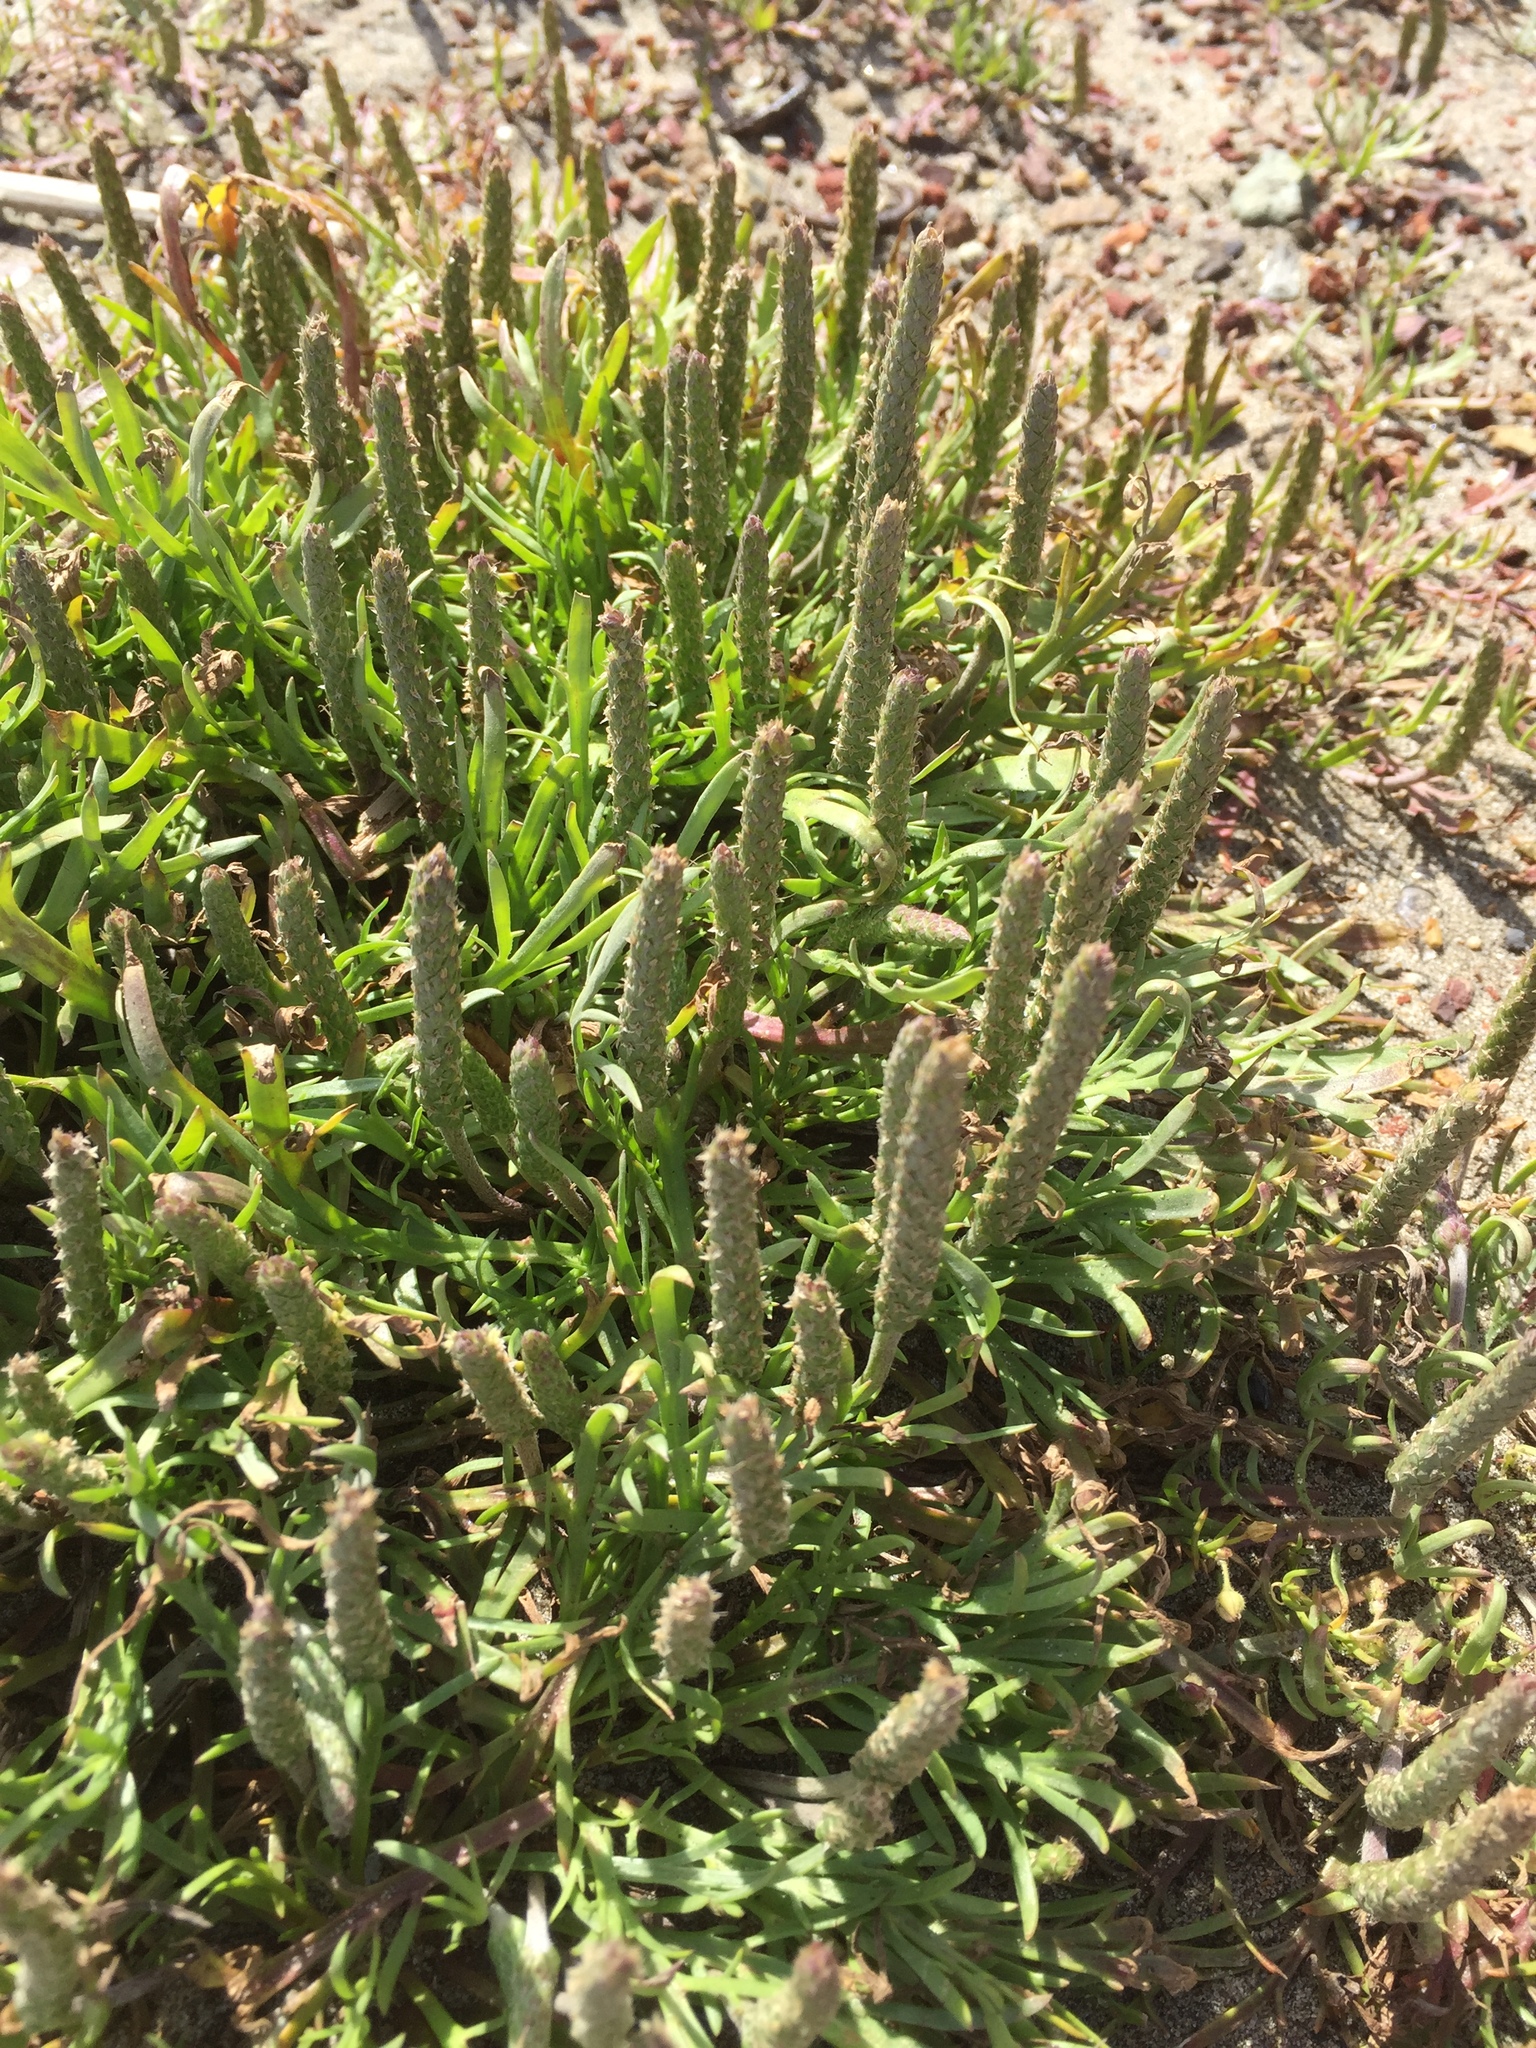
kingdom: Plantae
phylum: Tracheophyta
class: Magnoliopsida
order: Lamiales
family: Plantaginaceae
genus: Plantago
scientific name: Plantago coronopus
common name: Buck's-horn plantain
